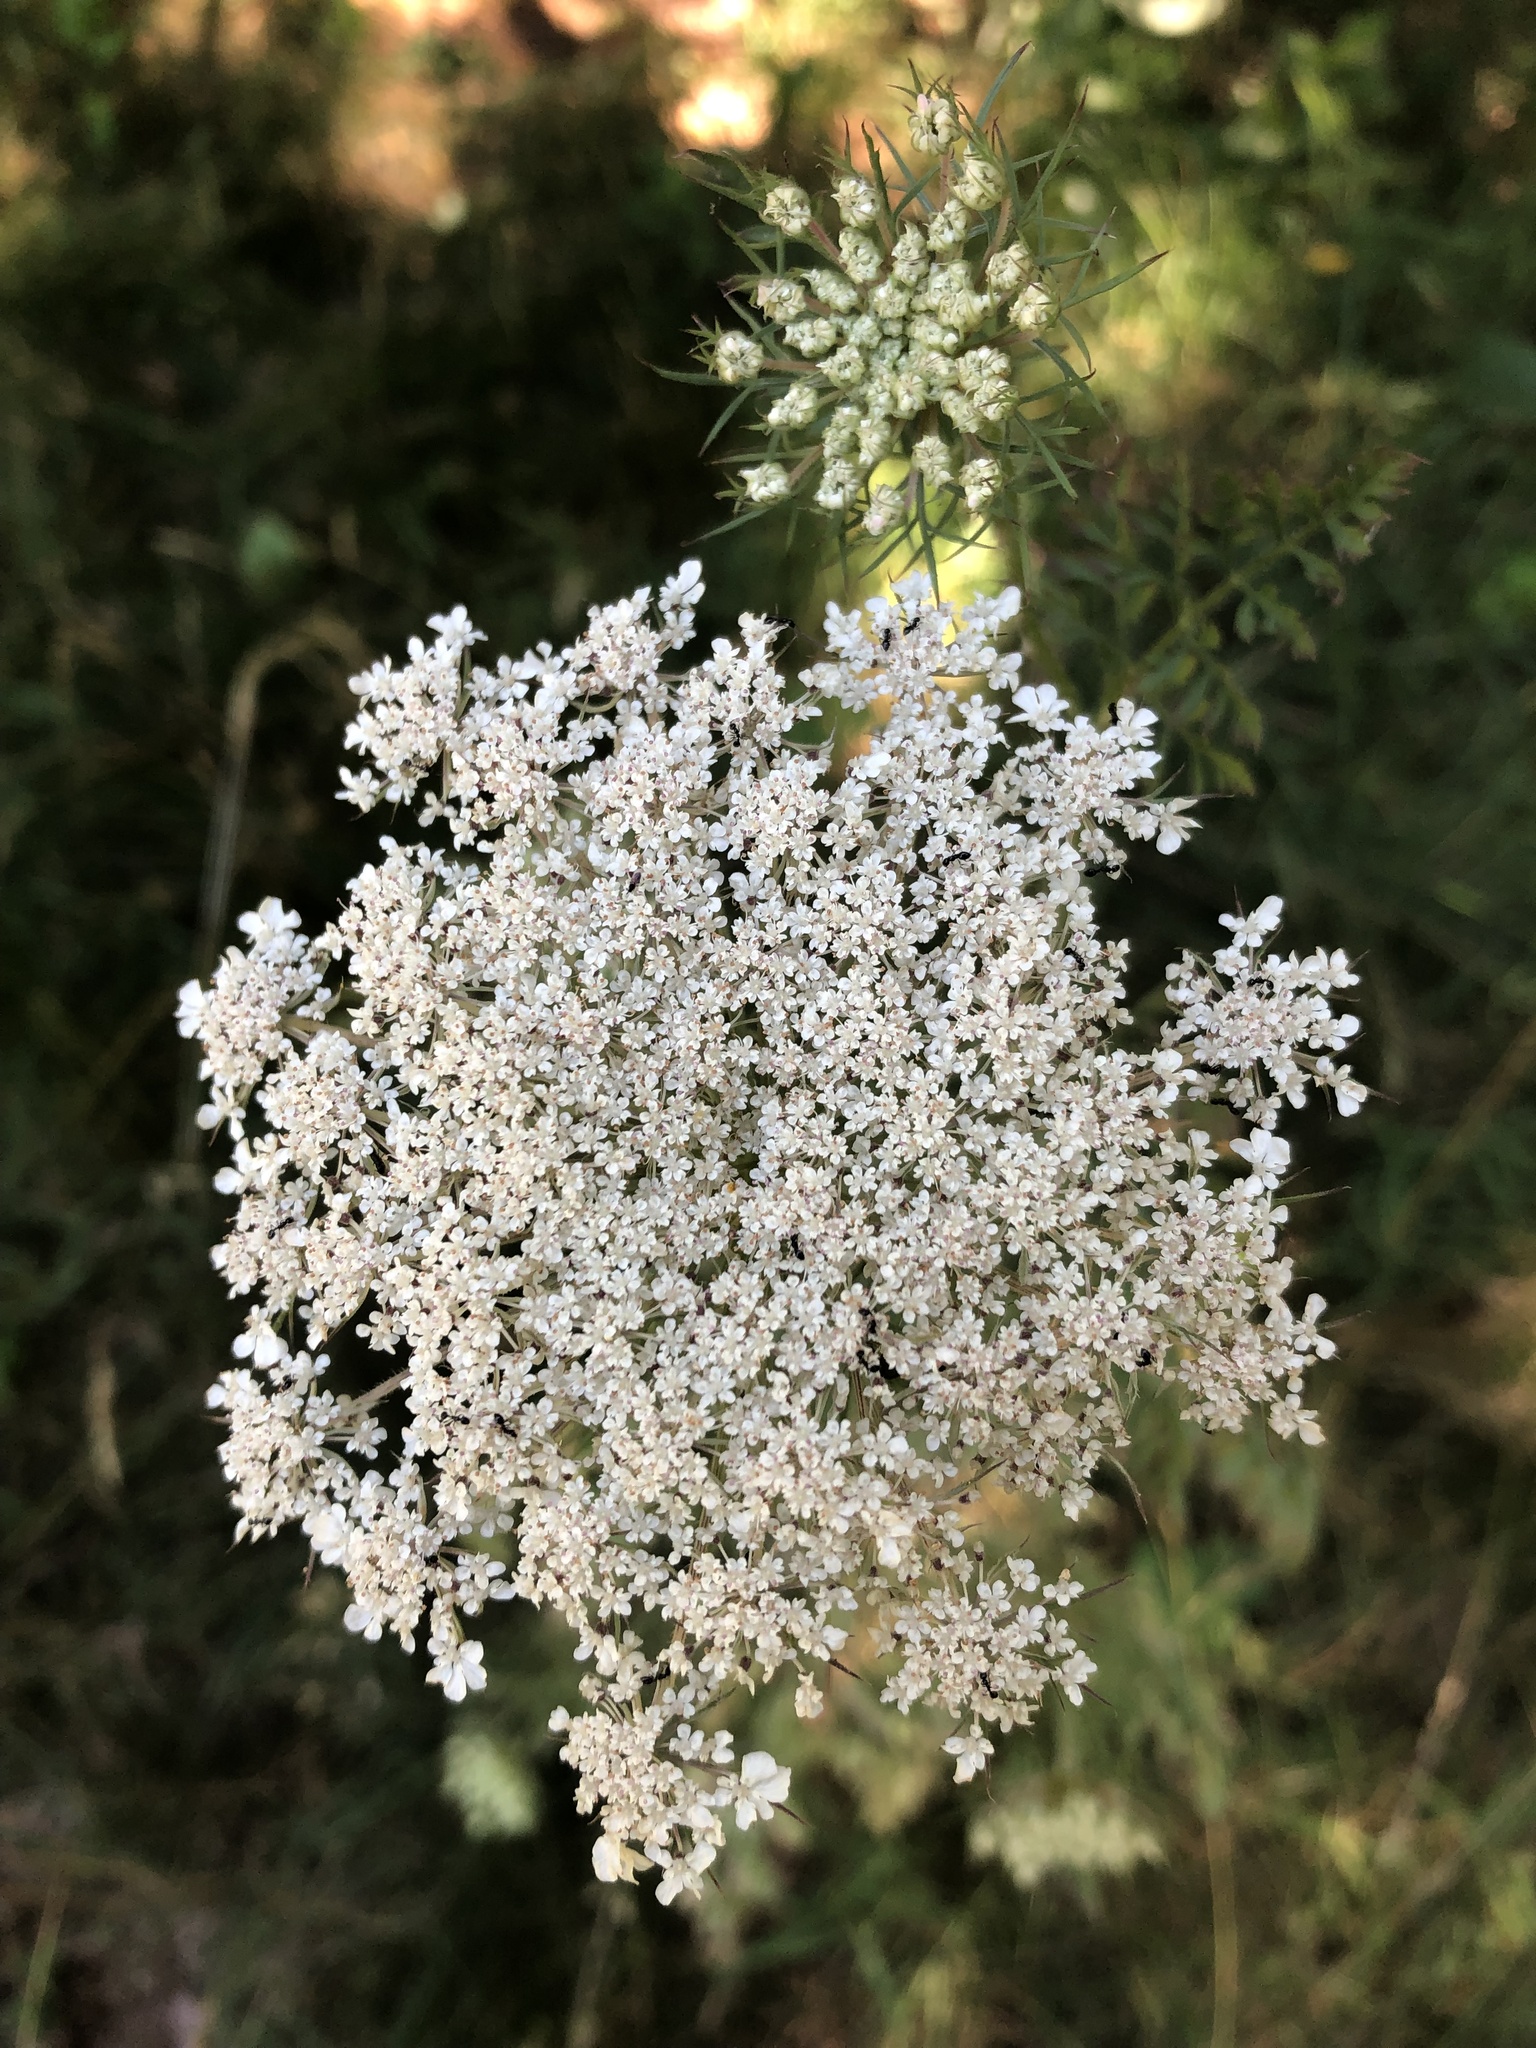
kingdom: Plantae
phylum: Tracheophyta
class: Magnoliopsida
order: Apiales
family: Apiaceae
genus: Daucus
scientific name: Daucus carota
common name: Wild carrot
